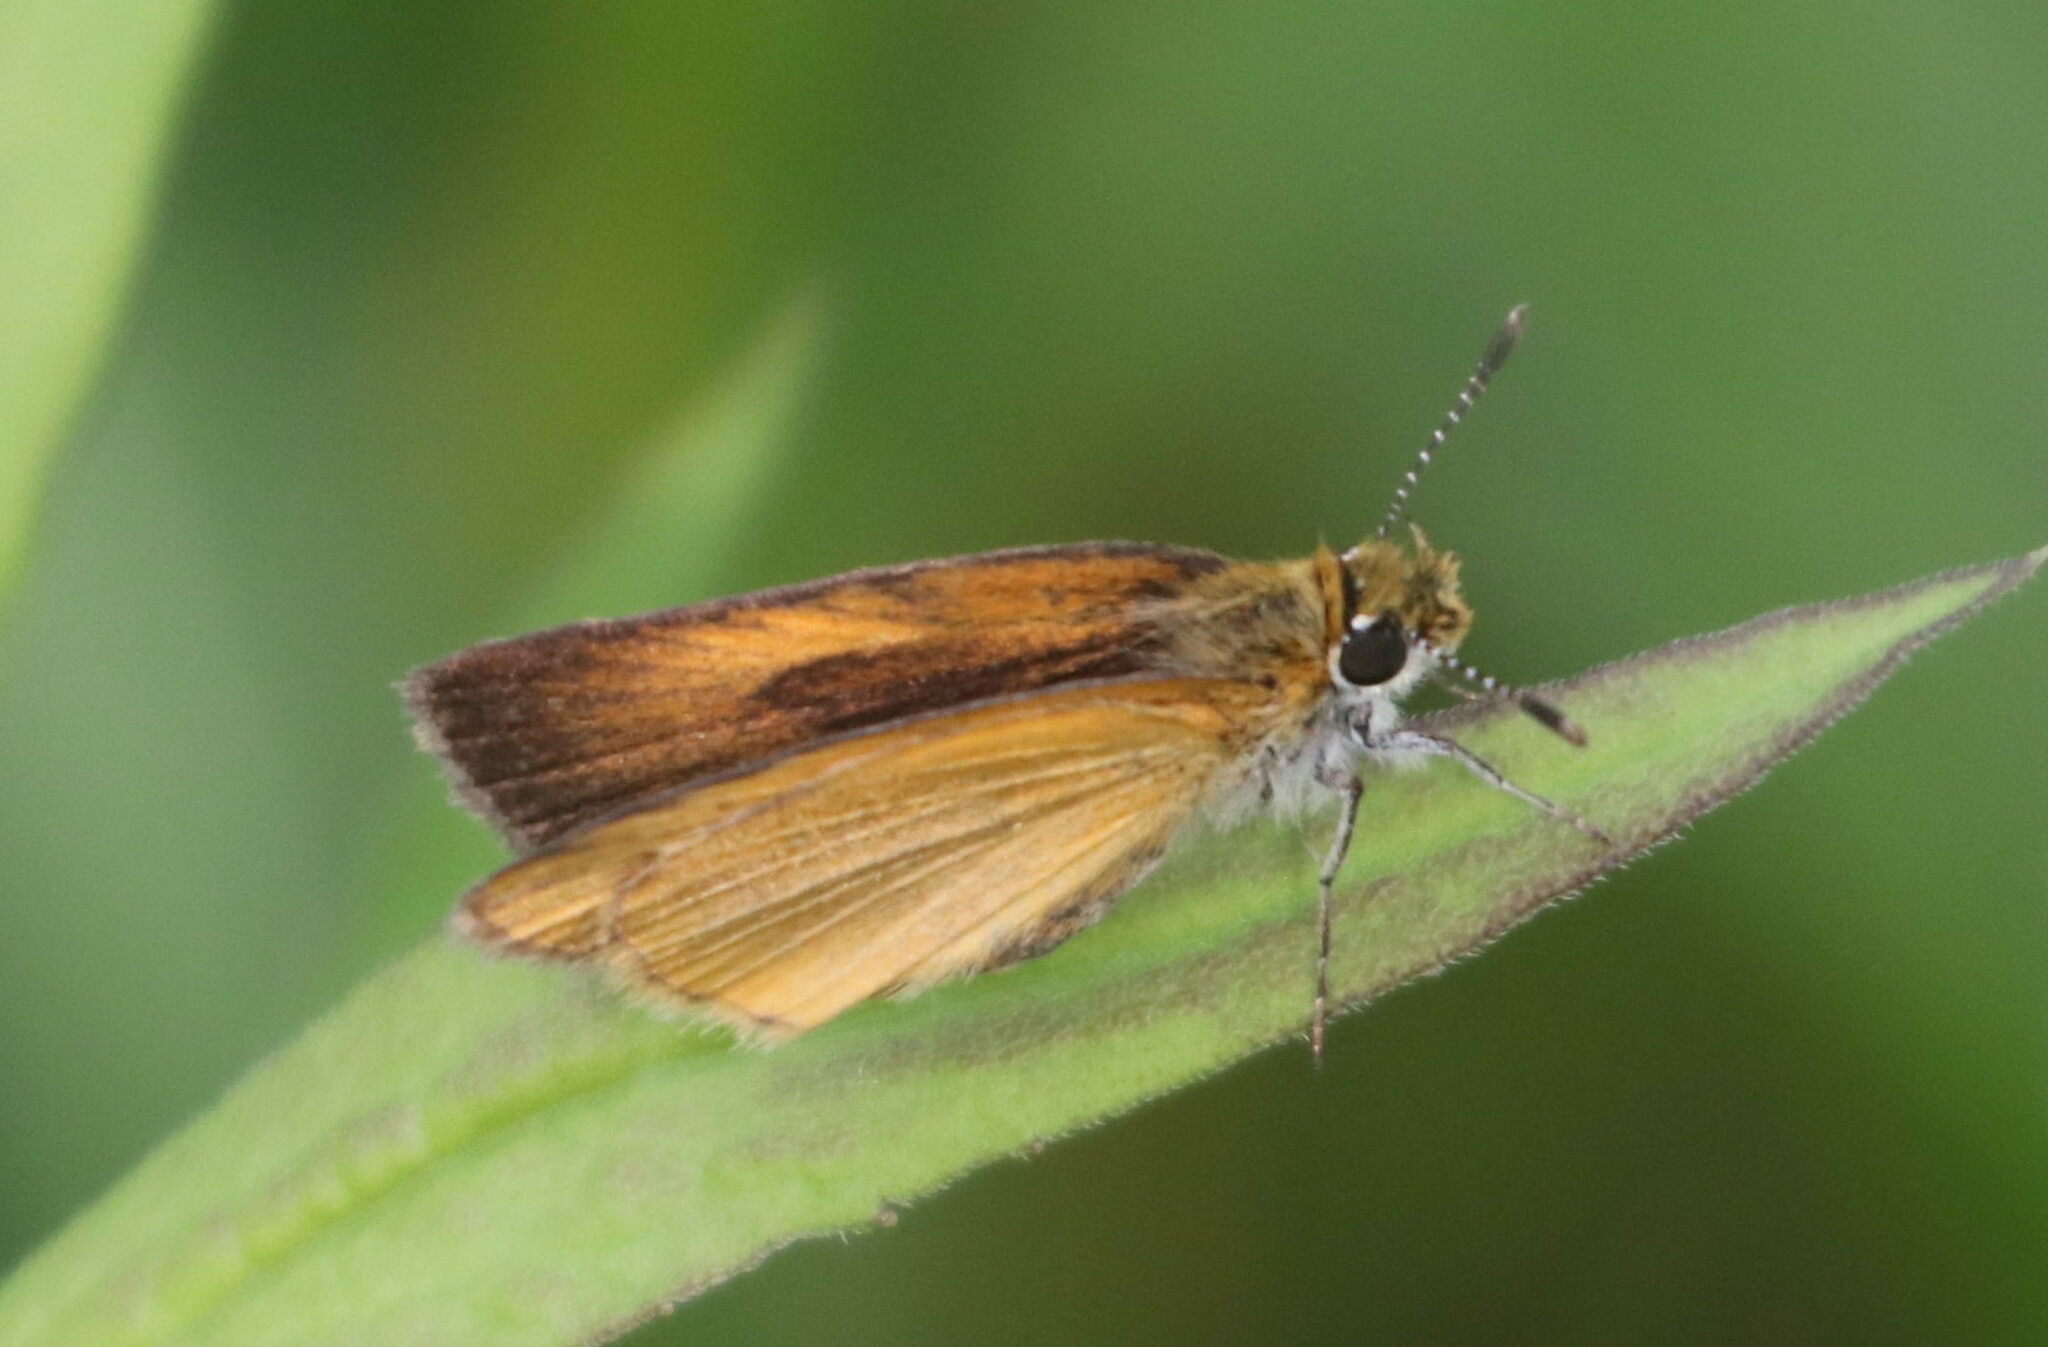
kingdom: Animalia
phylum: Arthropoda
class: Insecta
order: Lepidoptera
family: Hesperiidae
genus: Ancyloxypha
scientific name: Ancyloxypha numitor
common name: Least skipper
